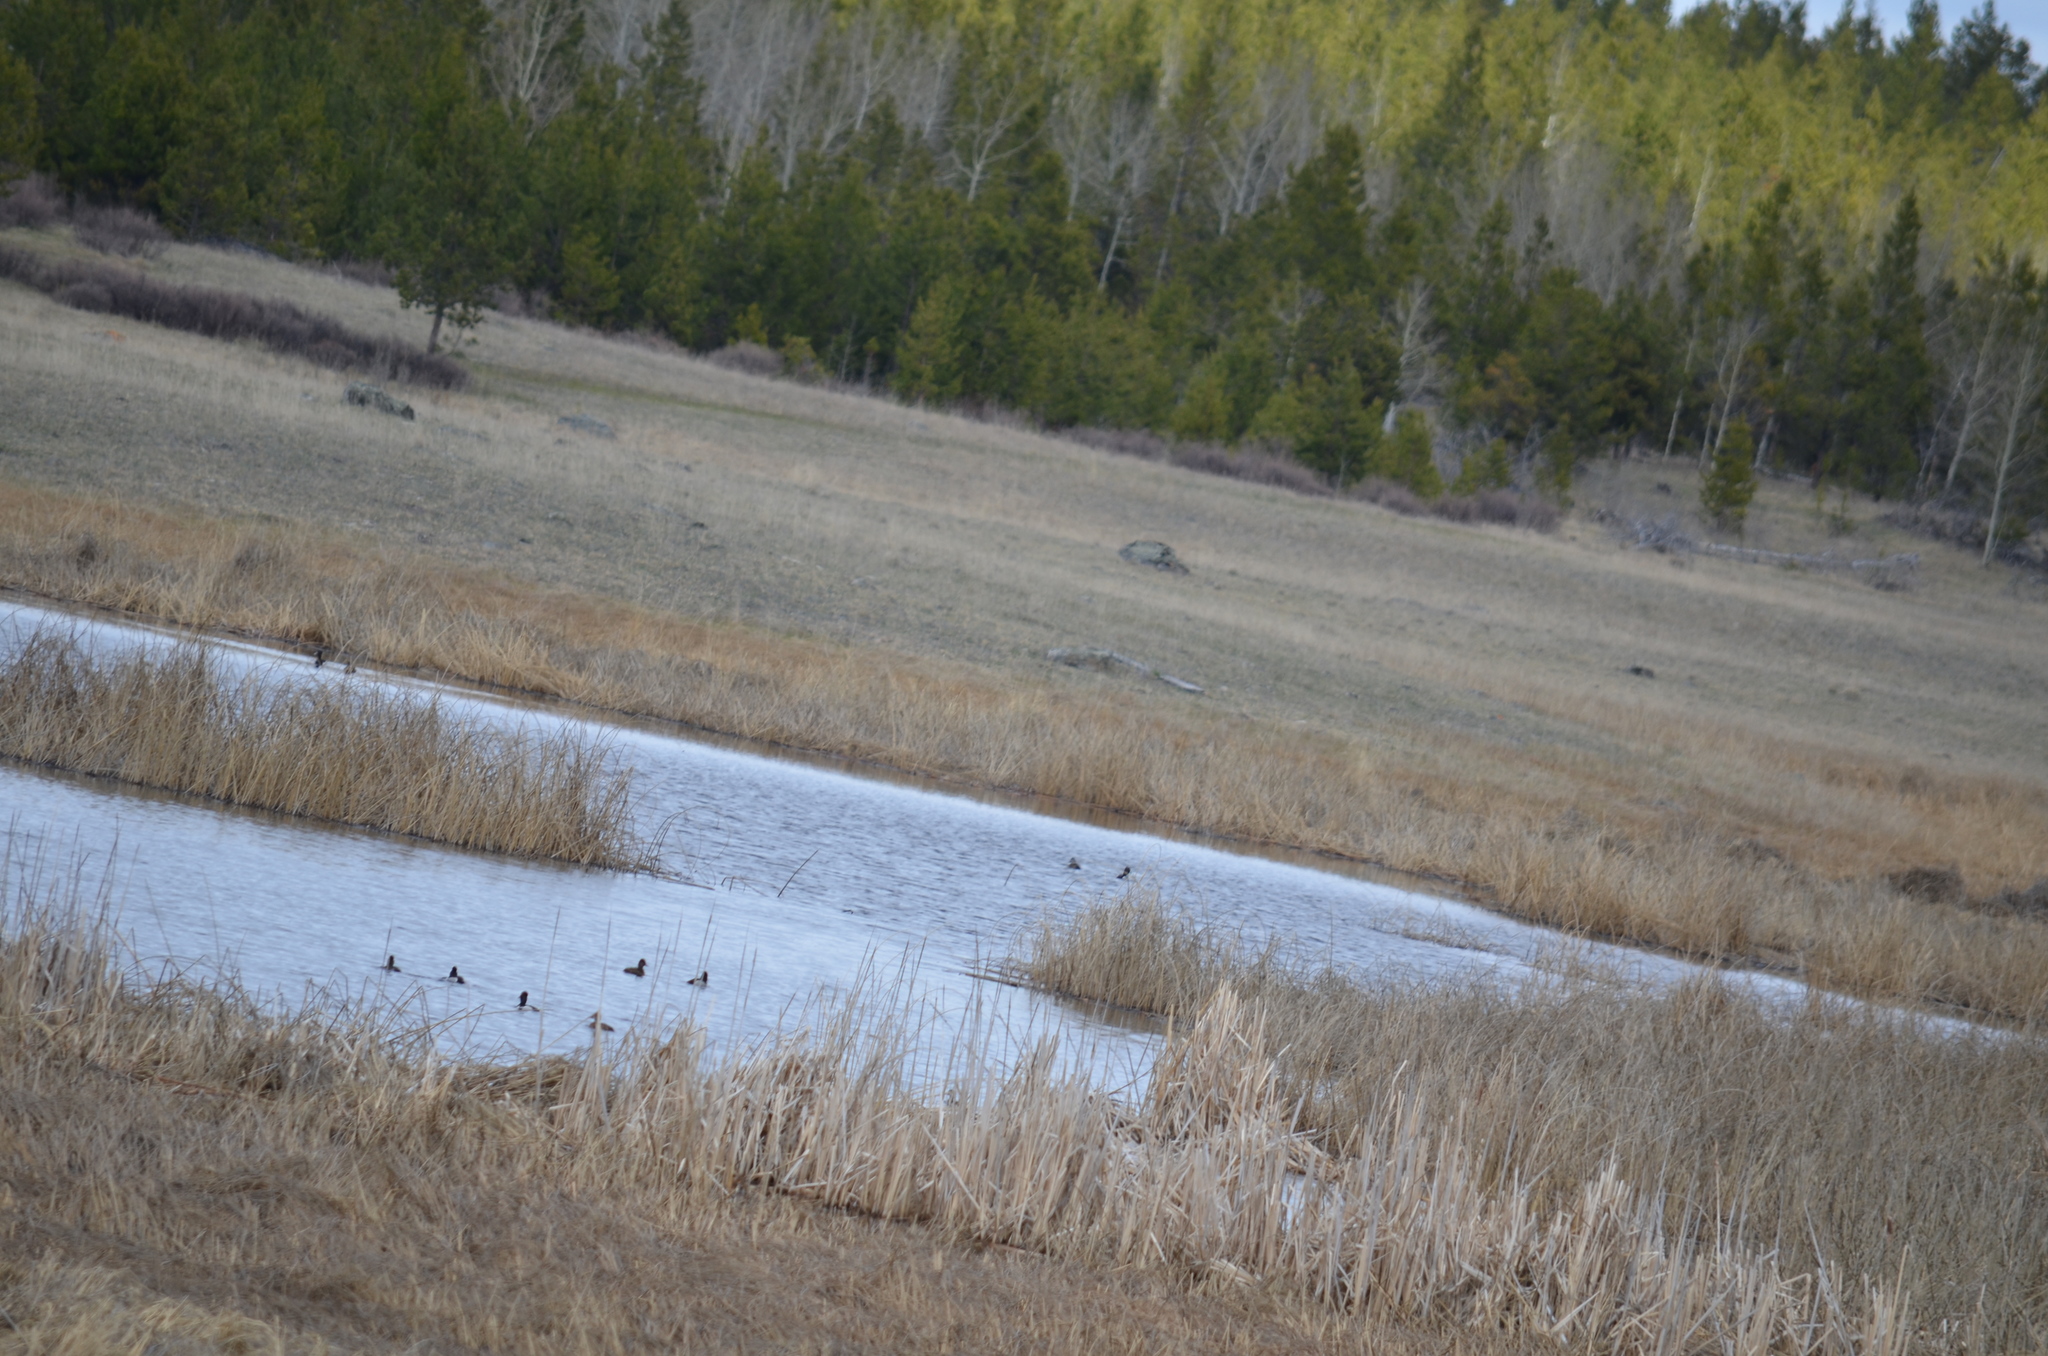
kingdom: Animalia
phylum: Chordata
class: Aves
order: Anseriformes
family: Anatidae
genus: Aythya
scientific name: Aythya collaris
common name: Ring-necked duck
